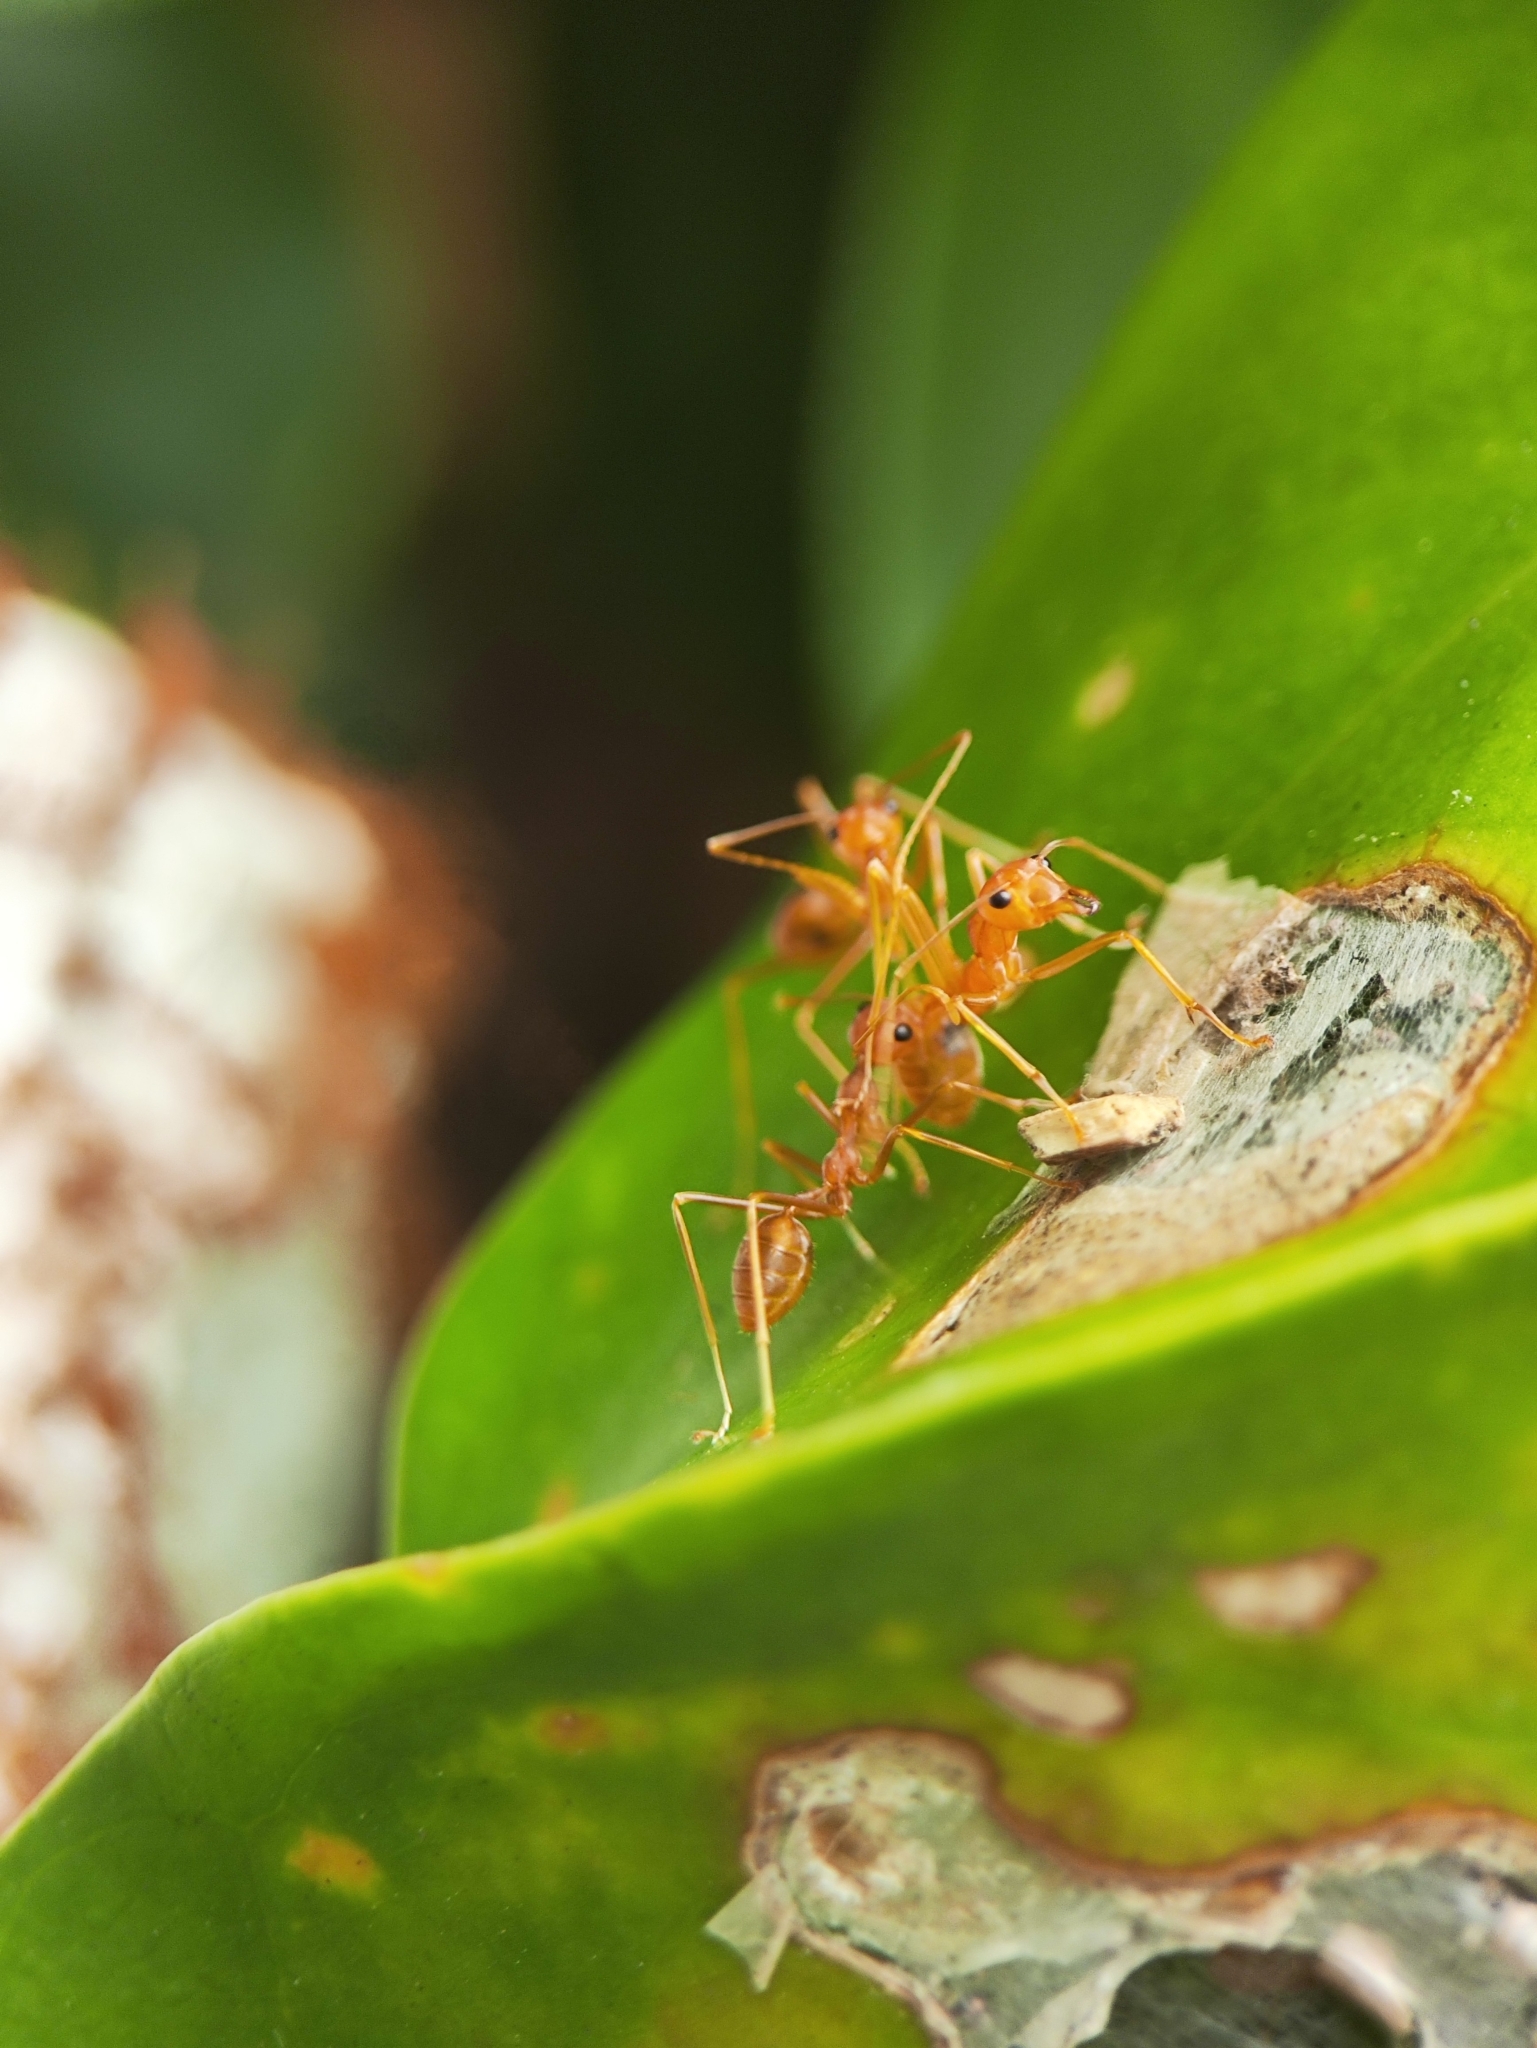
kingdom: Animalia
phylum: Arthropoda
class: Insecta
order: Hymenoptera
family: Formicidae
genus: Oecophylla
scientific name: Oecophylla smaragdina
